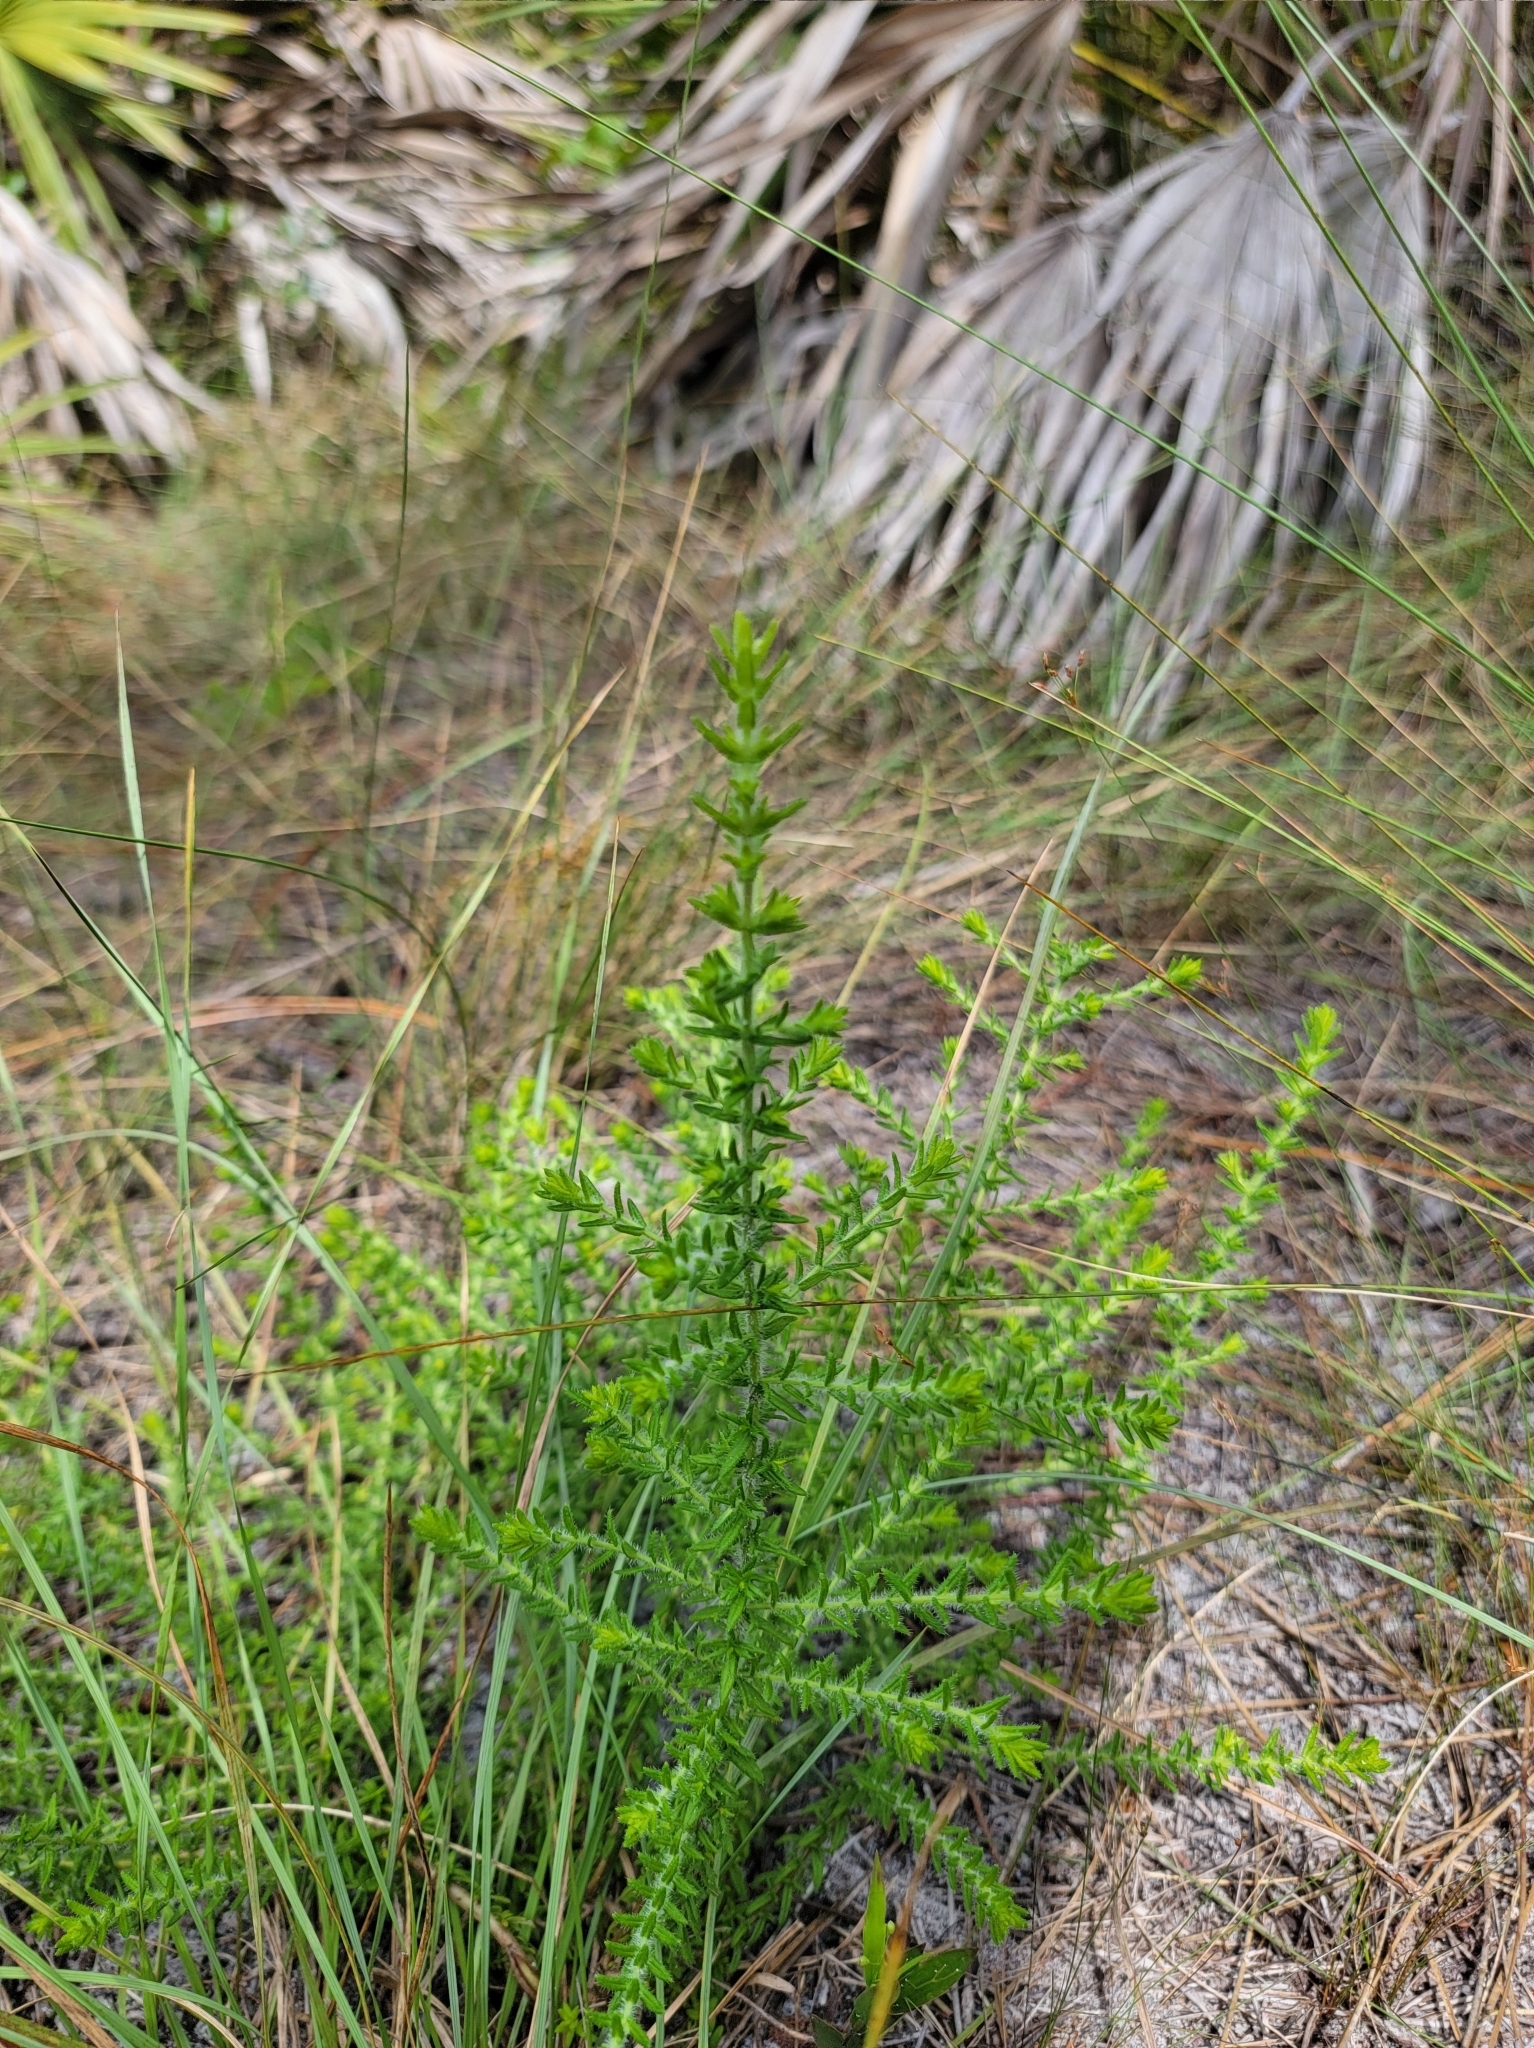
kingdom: Plantae
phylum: Tracheophyta
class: Magnoliopsida
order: Lamiales
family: Lamiaceae
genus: Piloblephis
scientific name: Piloblephis rigida
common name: Wild pennyroyal
